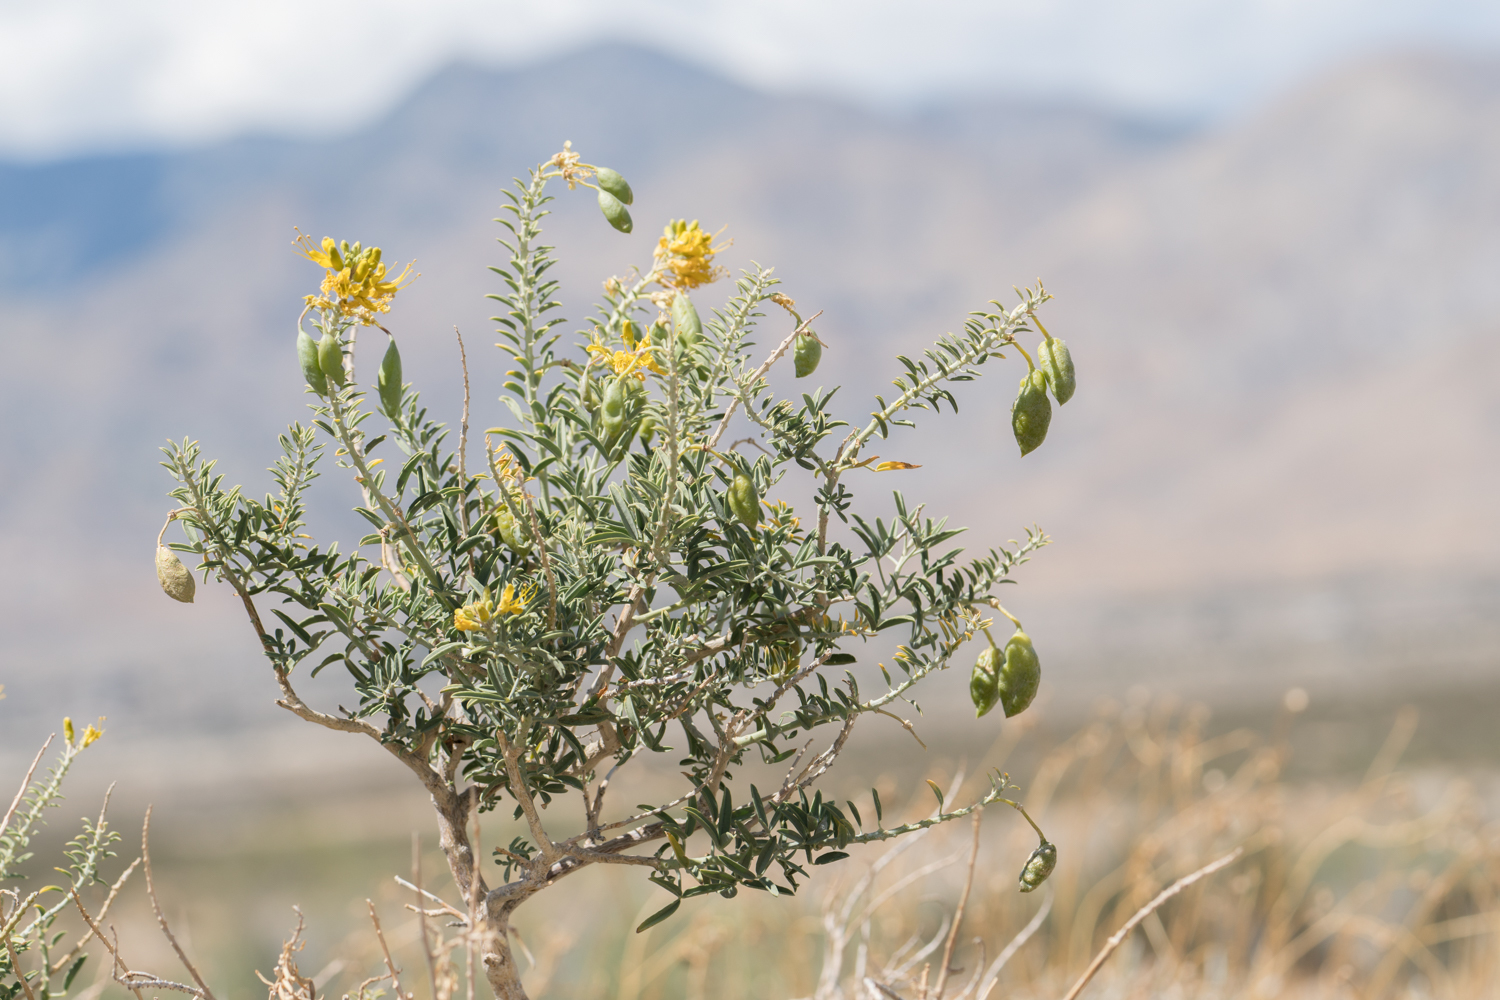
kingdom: Plantae
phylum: Tracheophyta
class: Magnoliopsida
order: Brassicales
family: Cleomaceae
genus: Cleomella
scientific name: Cleomella arborea
